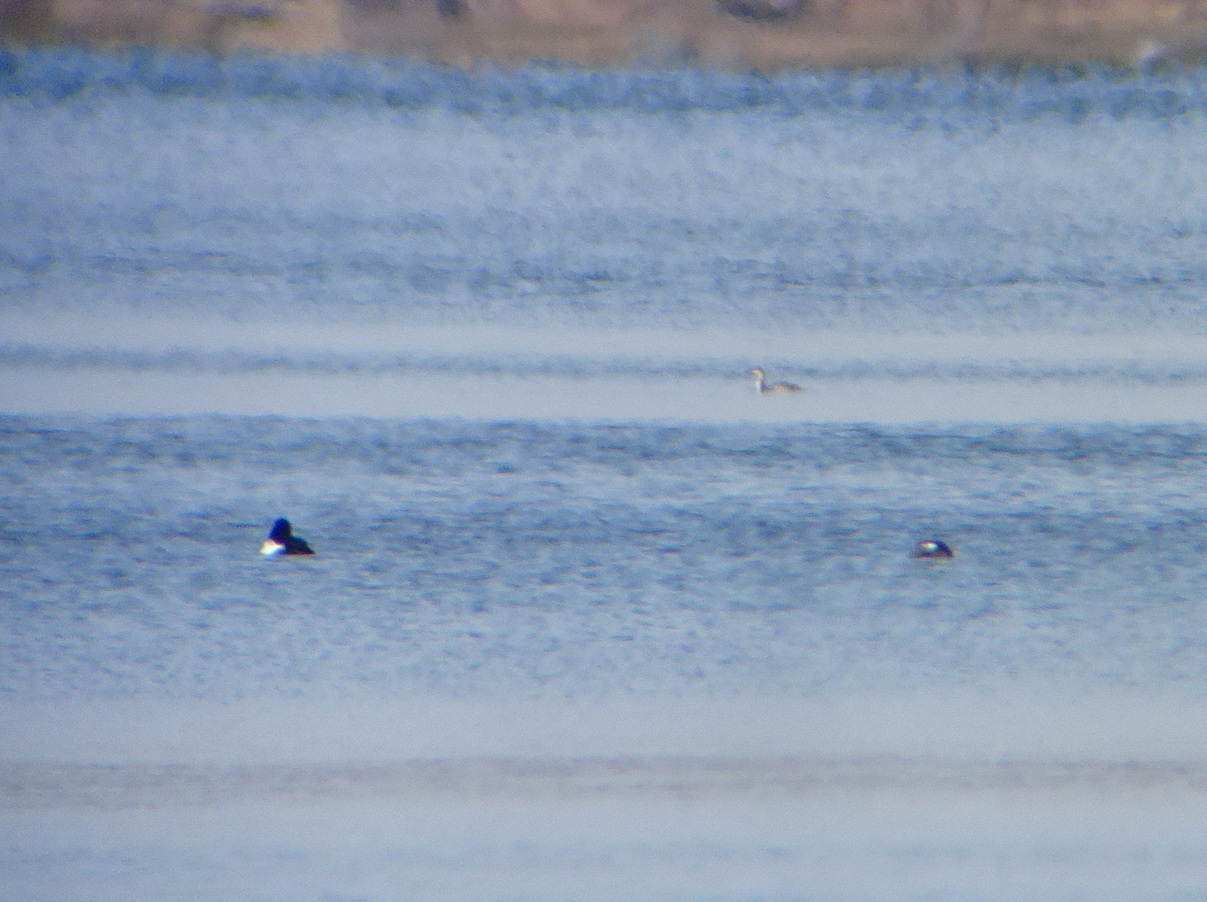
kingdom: Animalia
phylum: Chordata
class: Aves
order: Anseriformes
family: Anatidae
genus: Bucephala
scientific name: Bucephala clangula
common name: Common goldeneye
